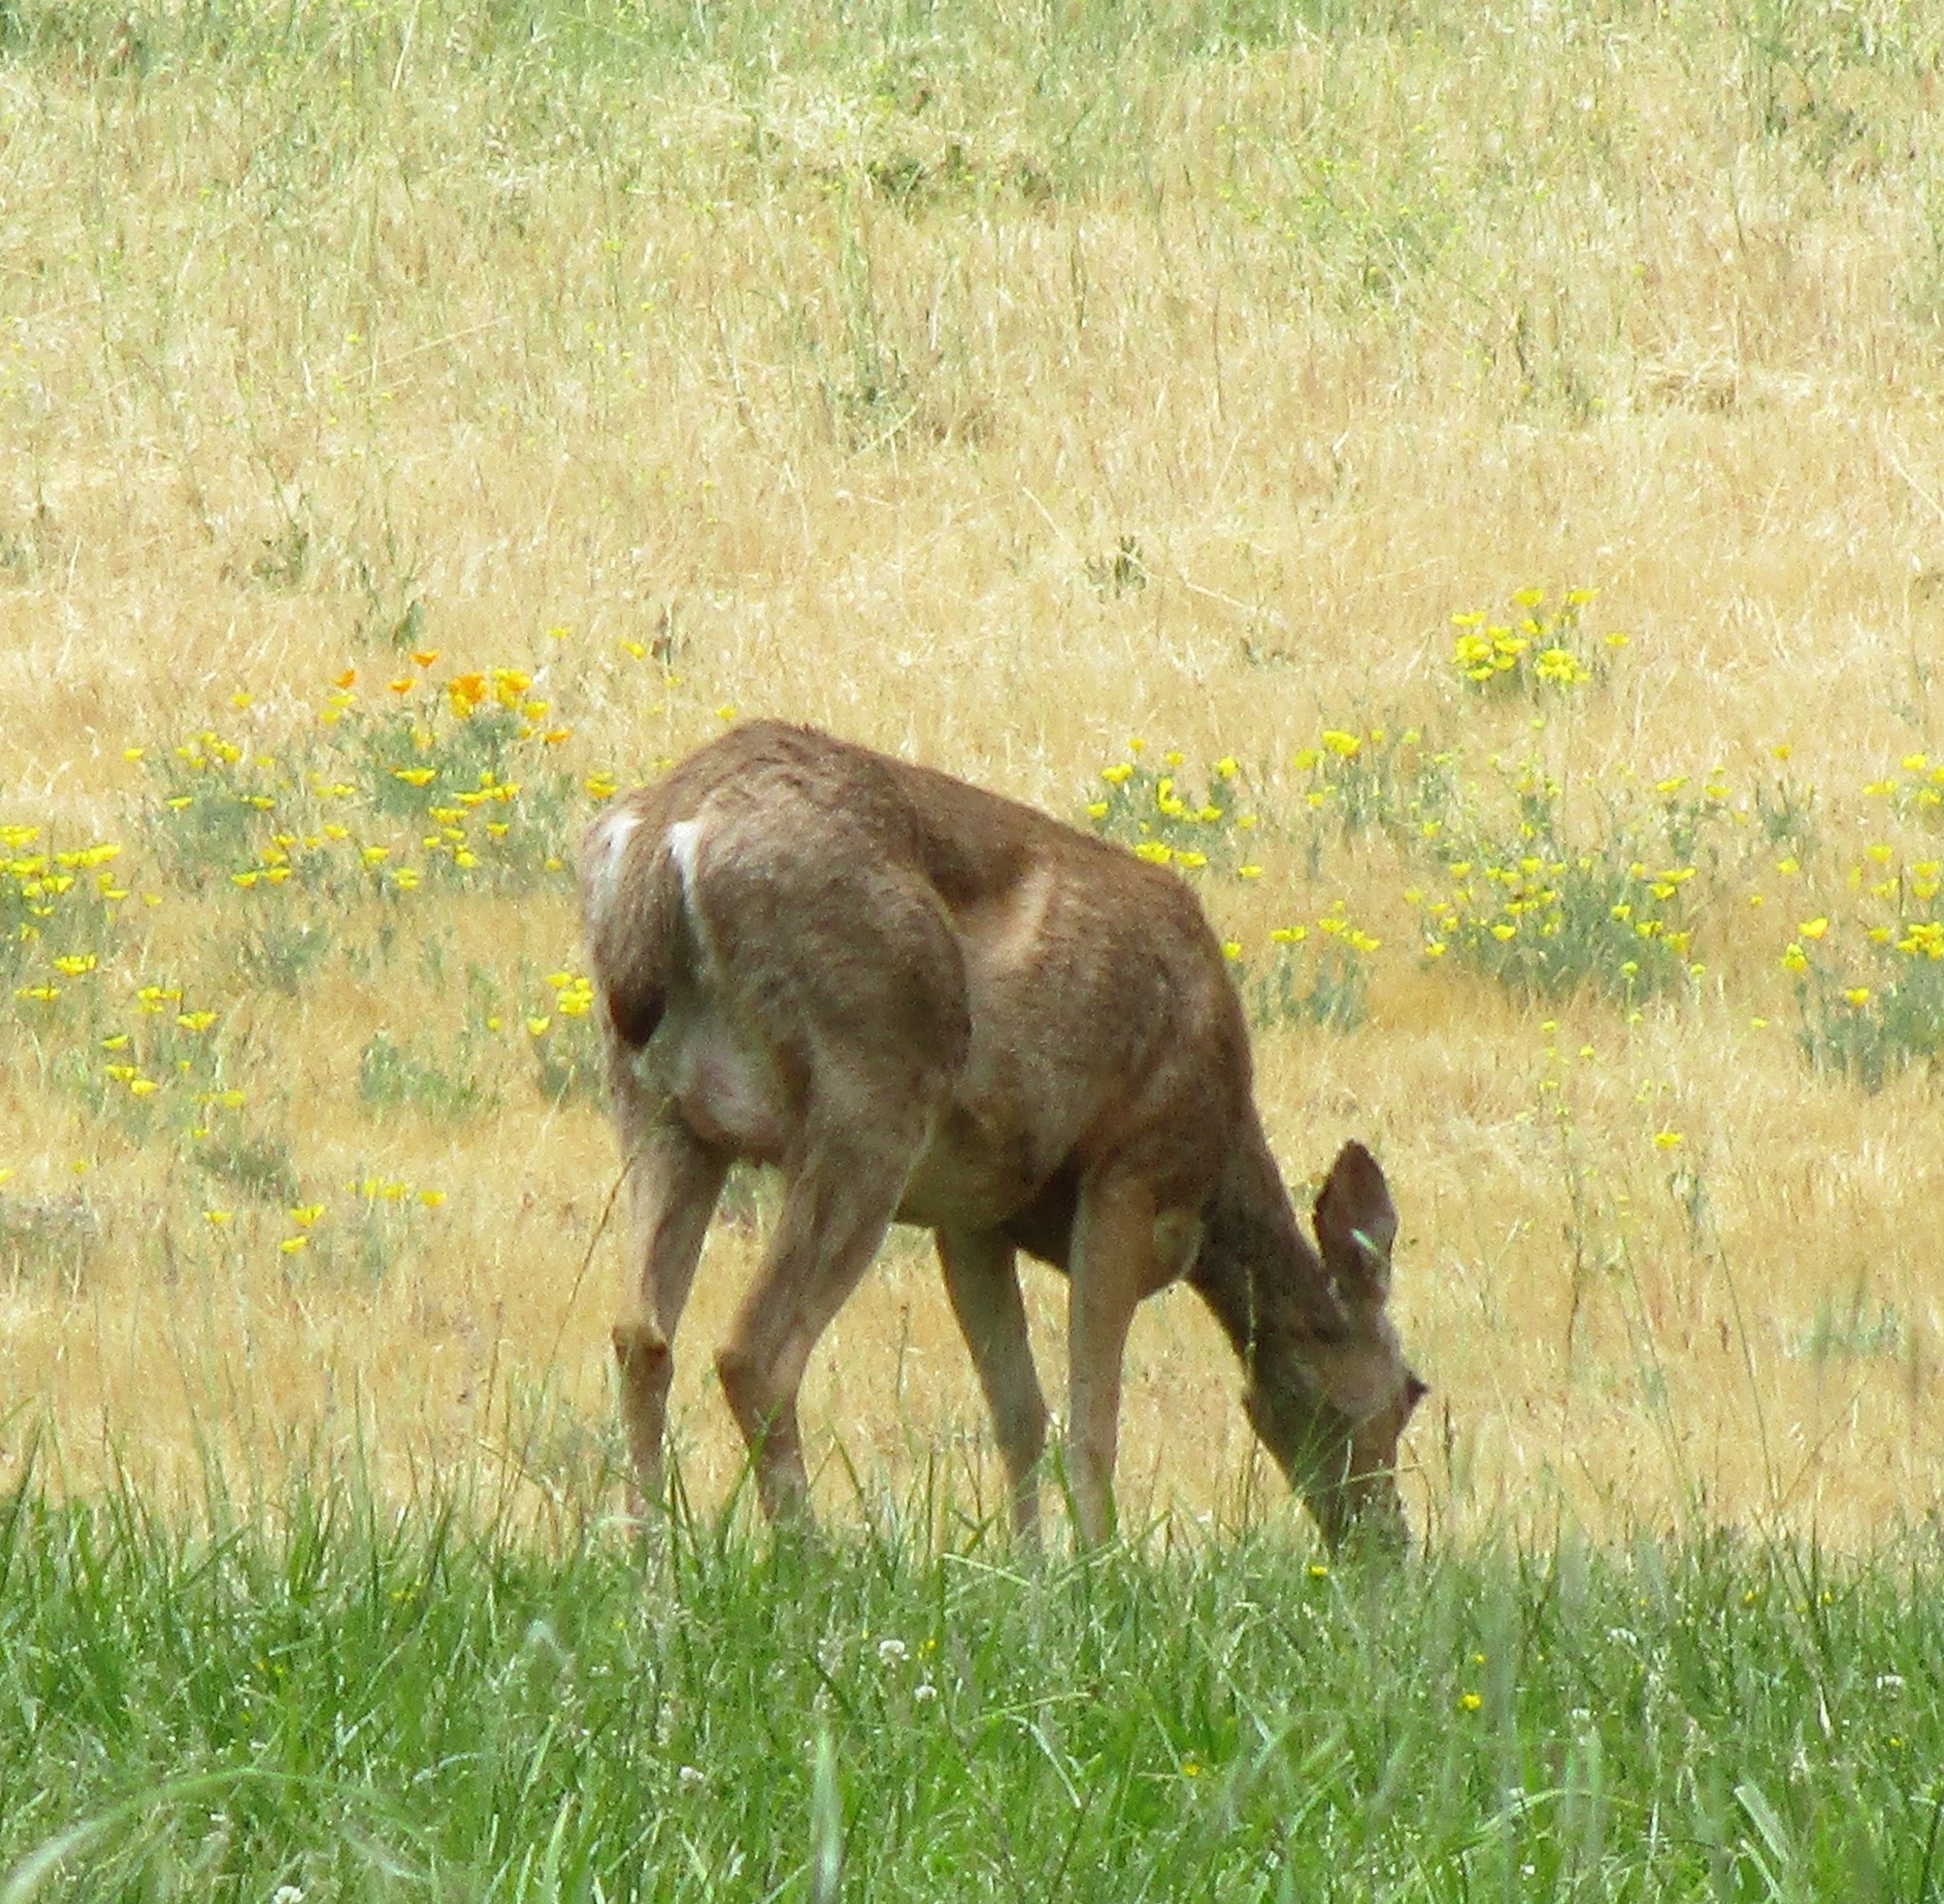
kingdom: Animalia
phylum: Chordata
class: Mammalia
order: Artiodactyla
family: Cervidae
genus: Odocoileus
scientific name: Odocoileus hemionus
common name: Mule deer
